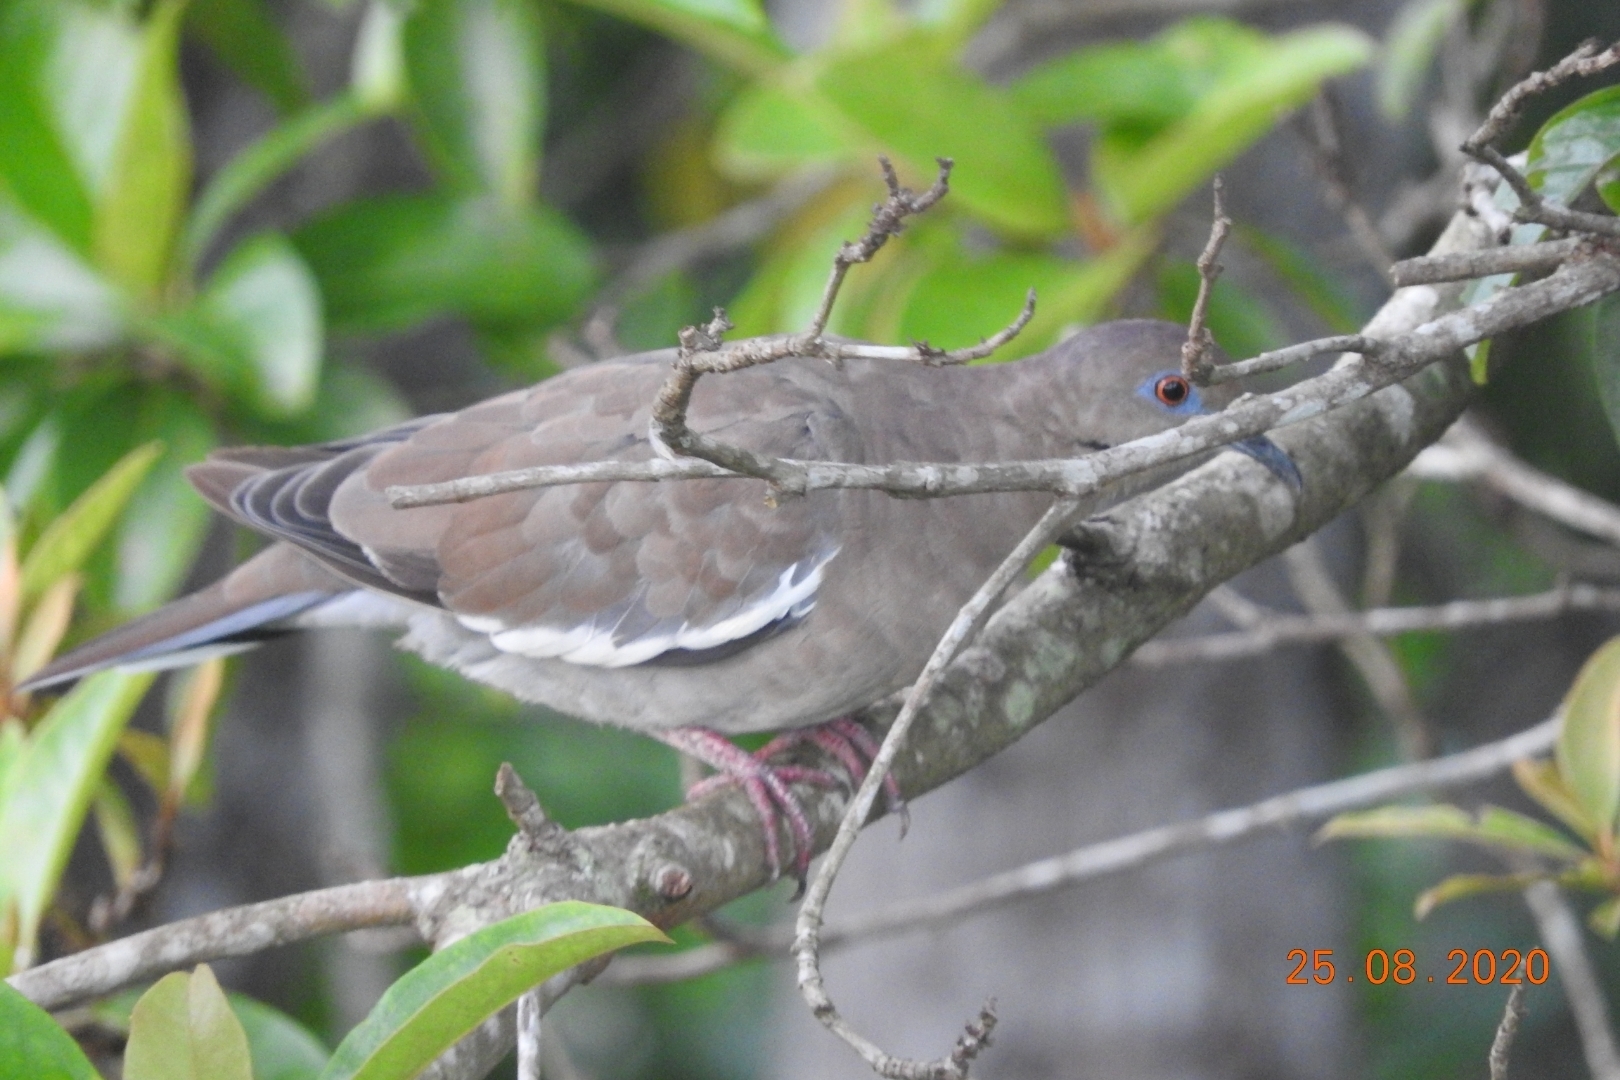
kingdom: Animalia
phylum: Chordata
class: Aves
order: Columbiformes
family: Columbidae
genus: Zenaida
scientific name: Zenaida asiatica
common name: White-winged dove
